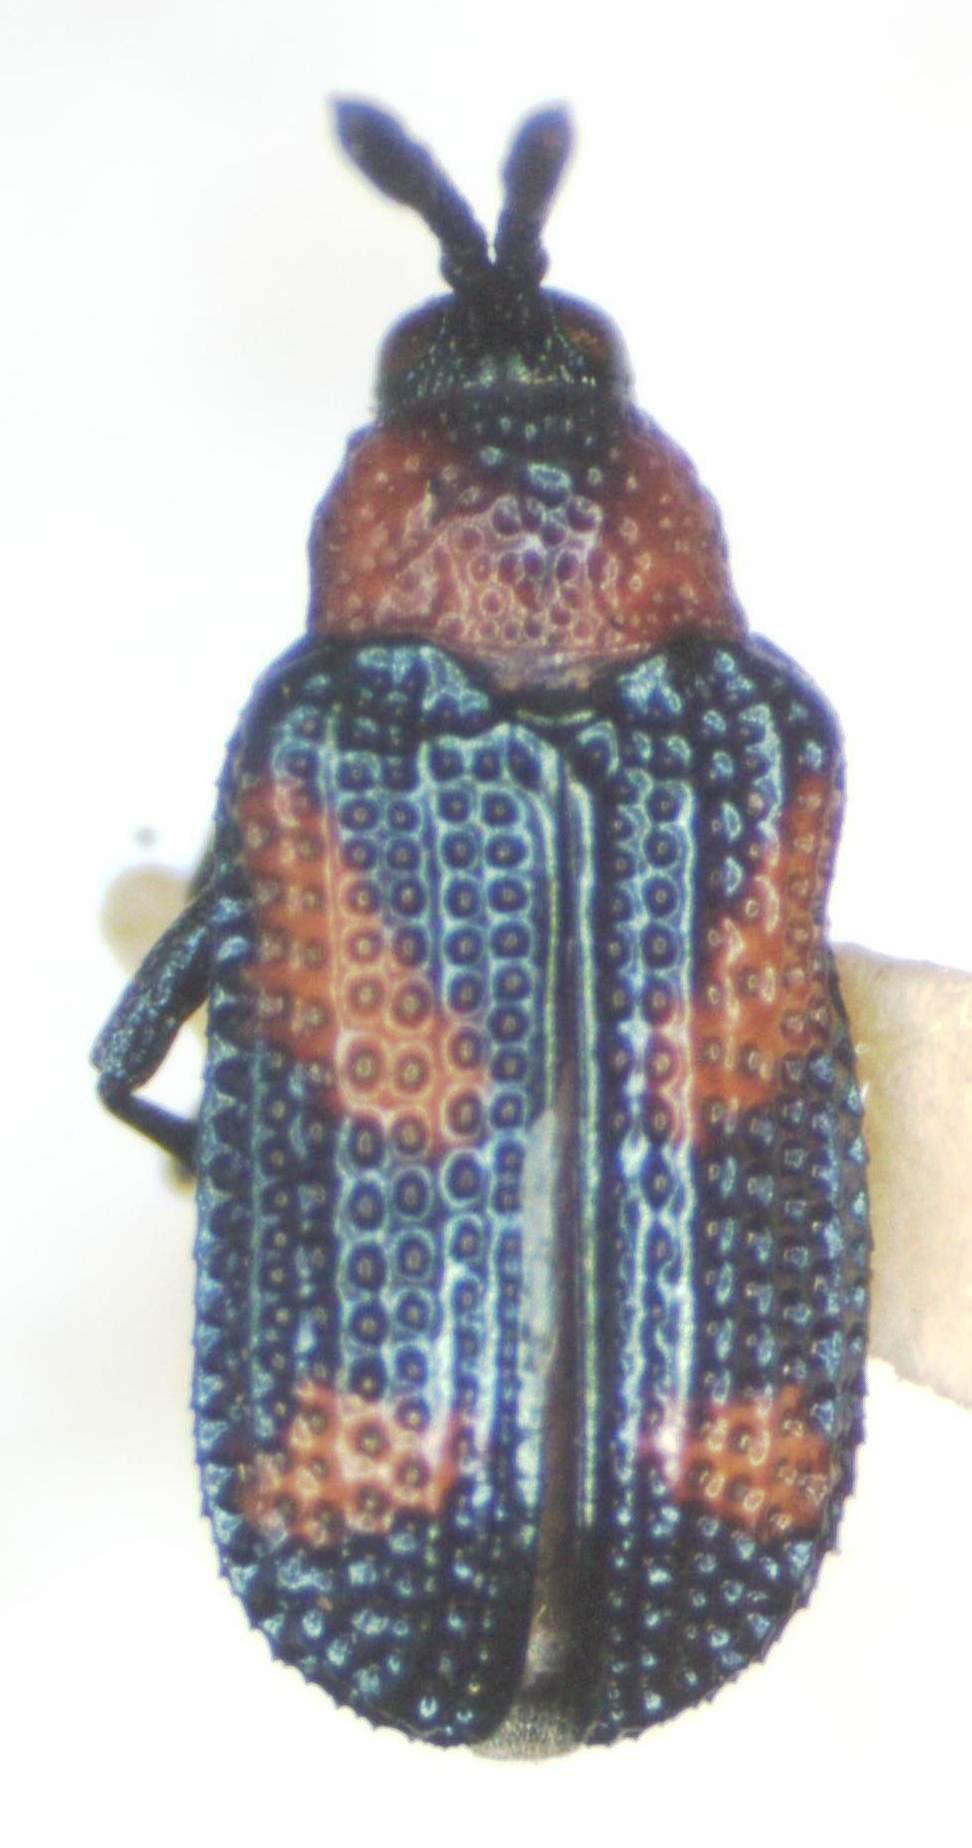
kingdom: Animalia
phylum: Arthropoda
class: Insecta
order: Coleoptera
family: Chrysomelidae
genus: Microrhopala
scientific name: Microrhopala perforata
